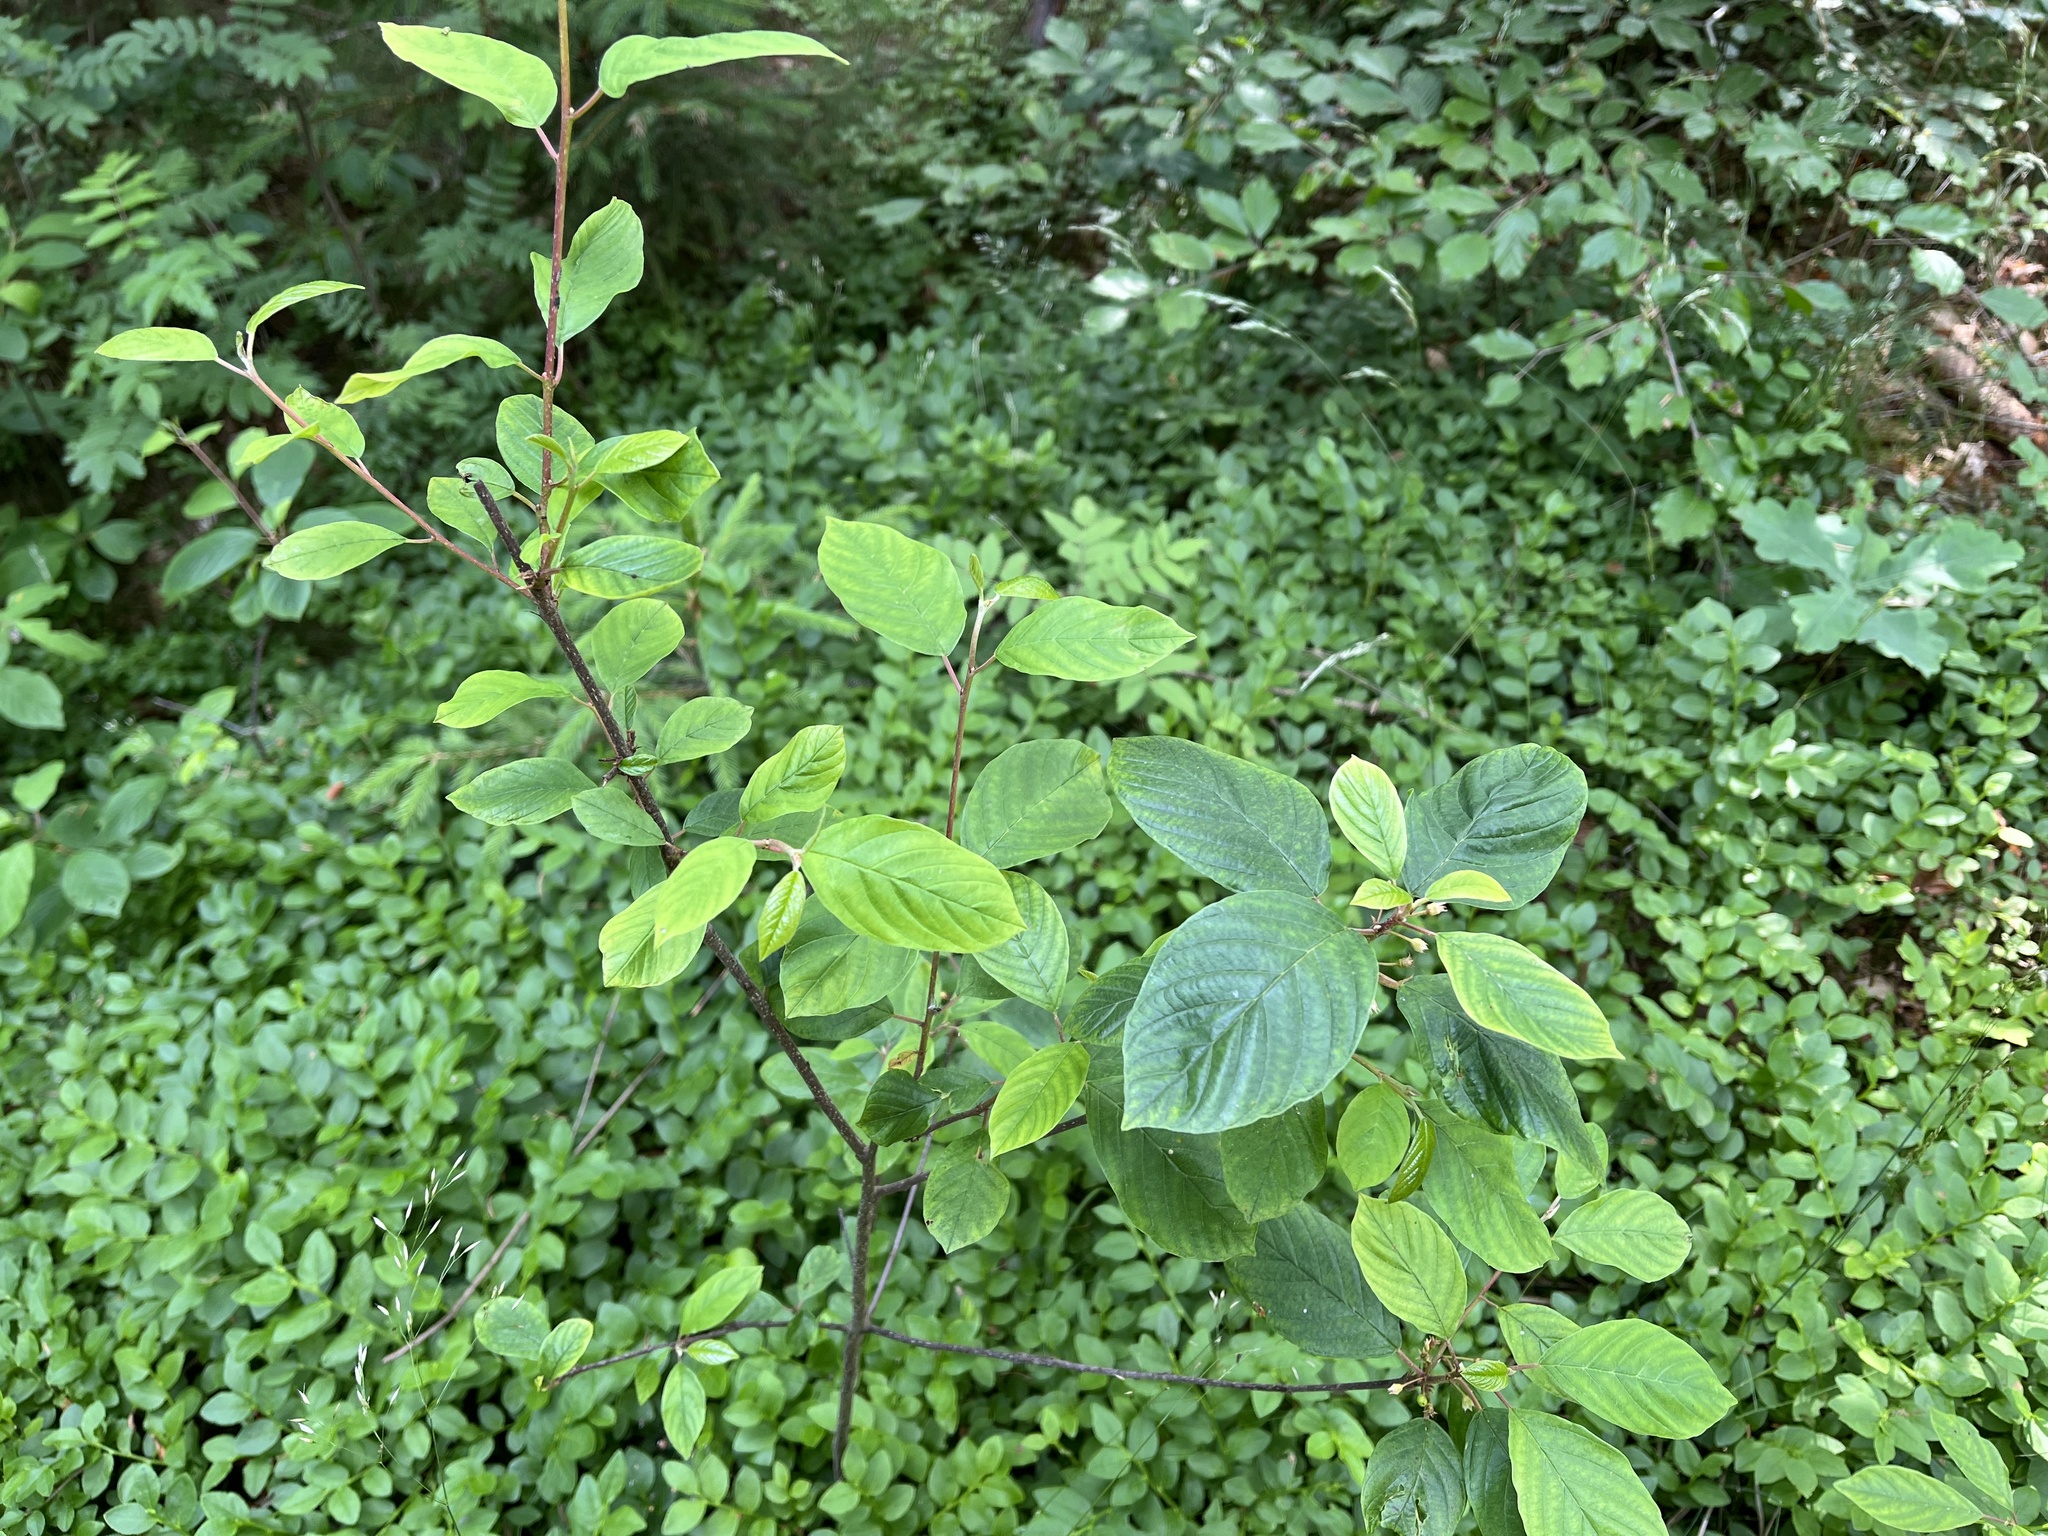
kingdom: Plantae
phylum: Tracheophyta
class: Magnoliopsida
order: Rosales
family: Rhamnaceae
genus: Frangula
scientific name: Frangula alnus
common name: Alder buckthorn
